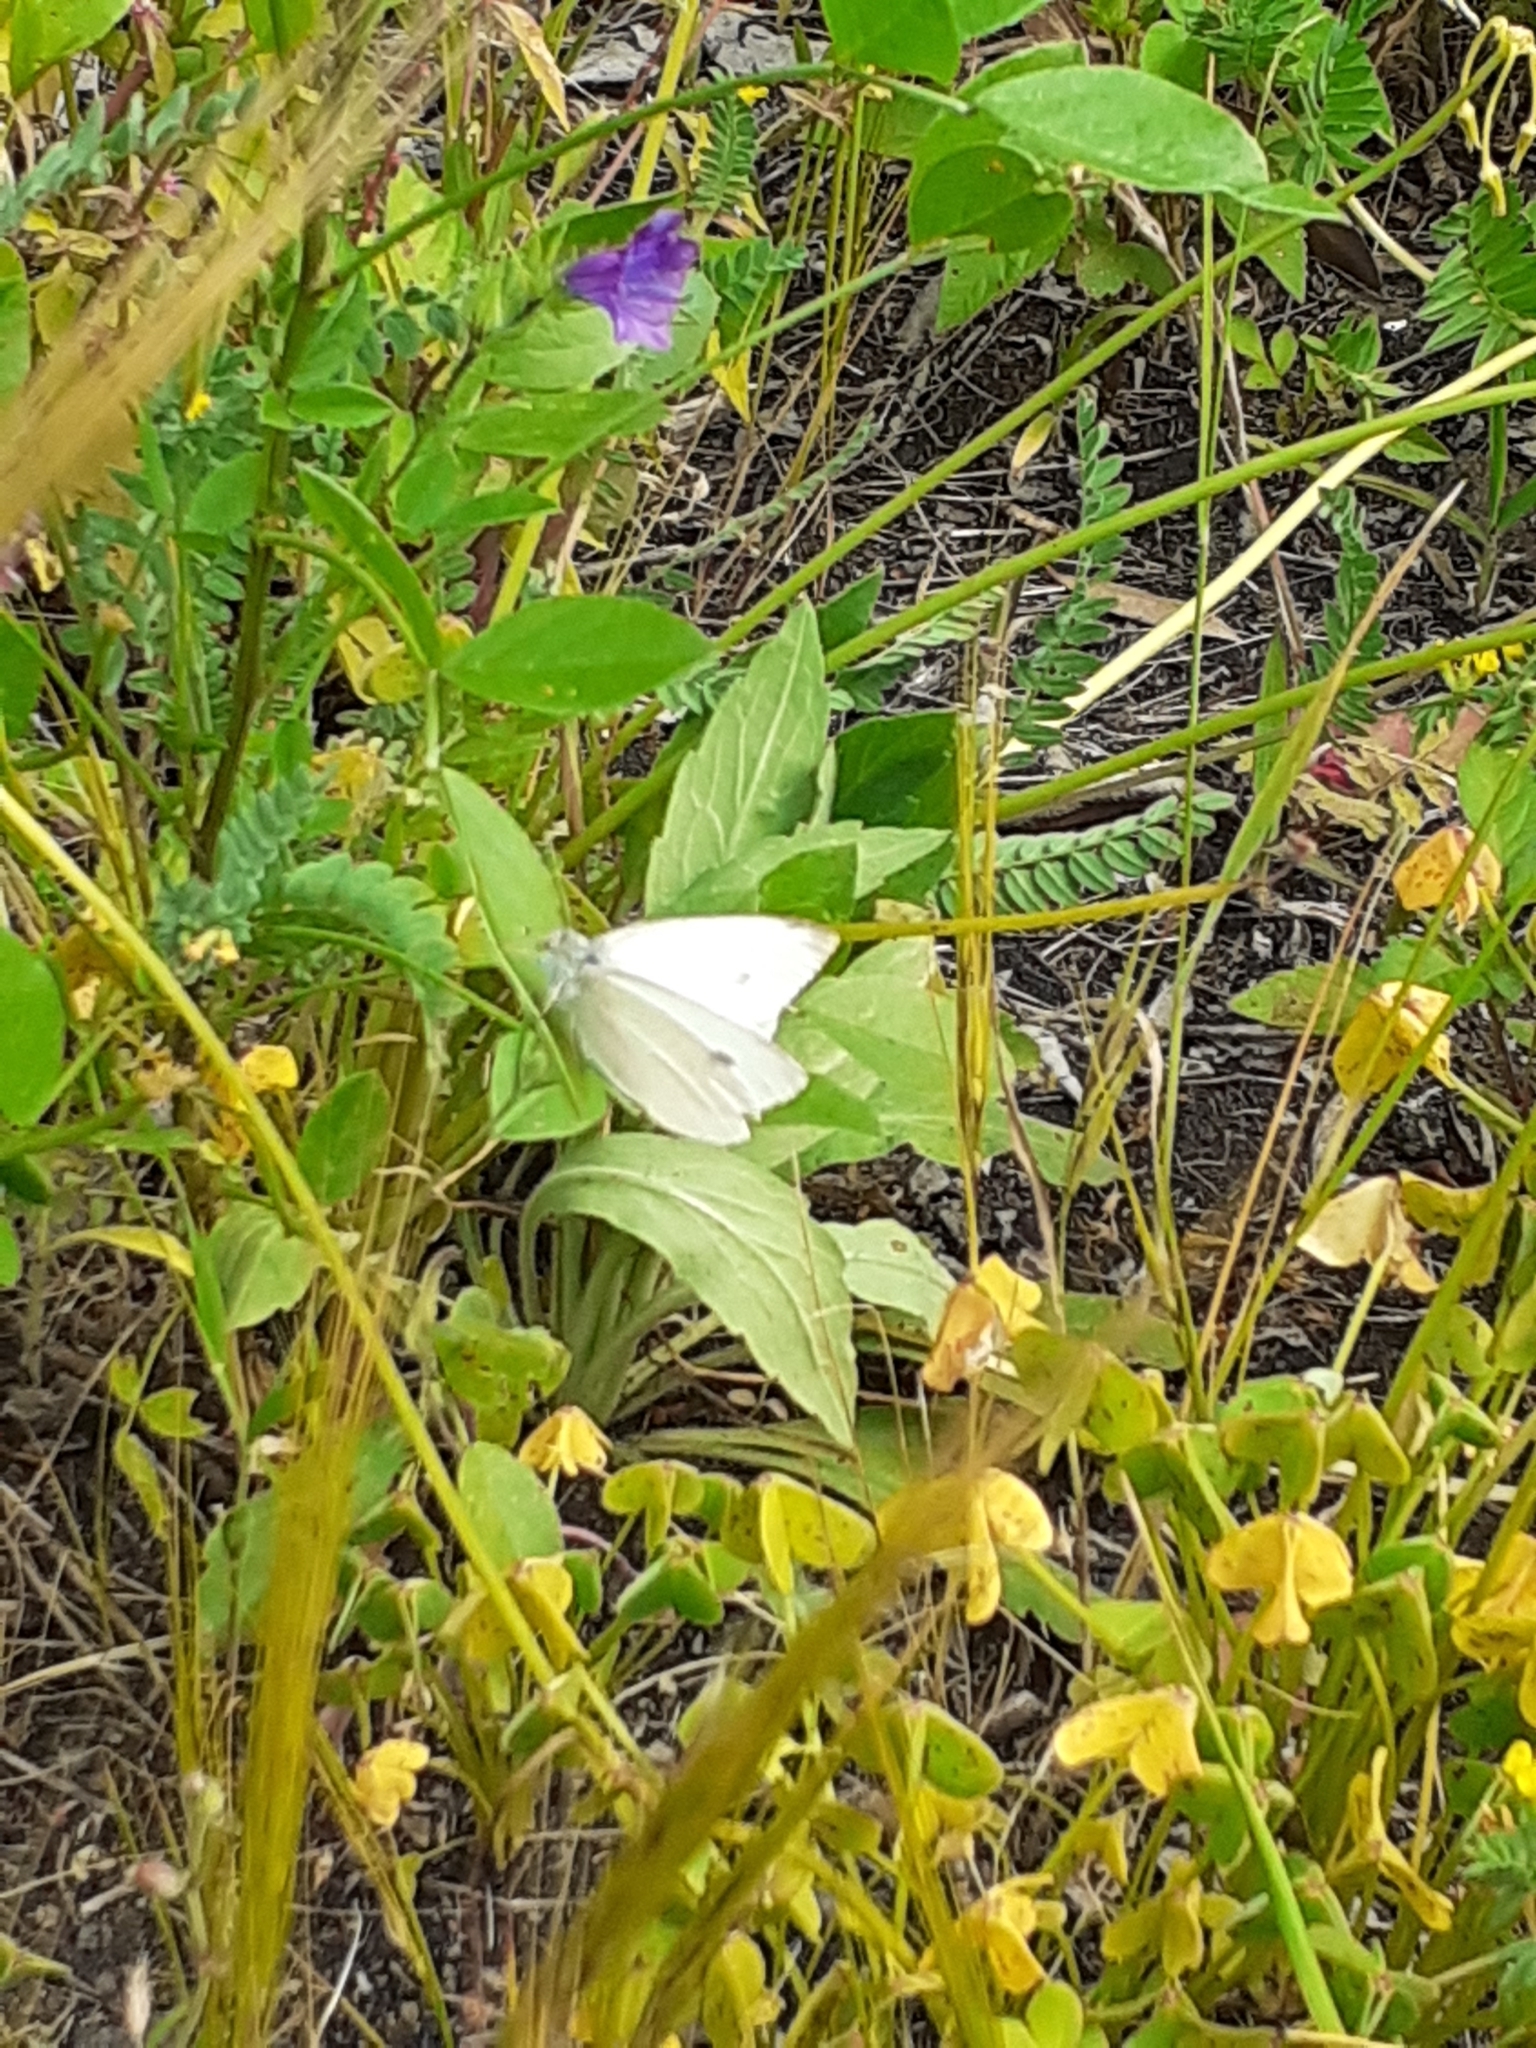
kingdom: Animalia
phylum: Arthropoda
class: Insecta
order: Lepidoptera
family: Pieridae
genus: Pieris
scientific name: Pieris rapae
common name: Small white
